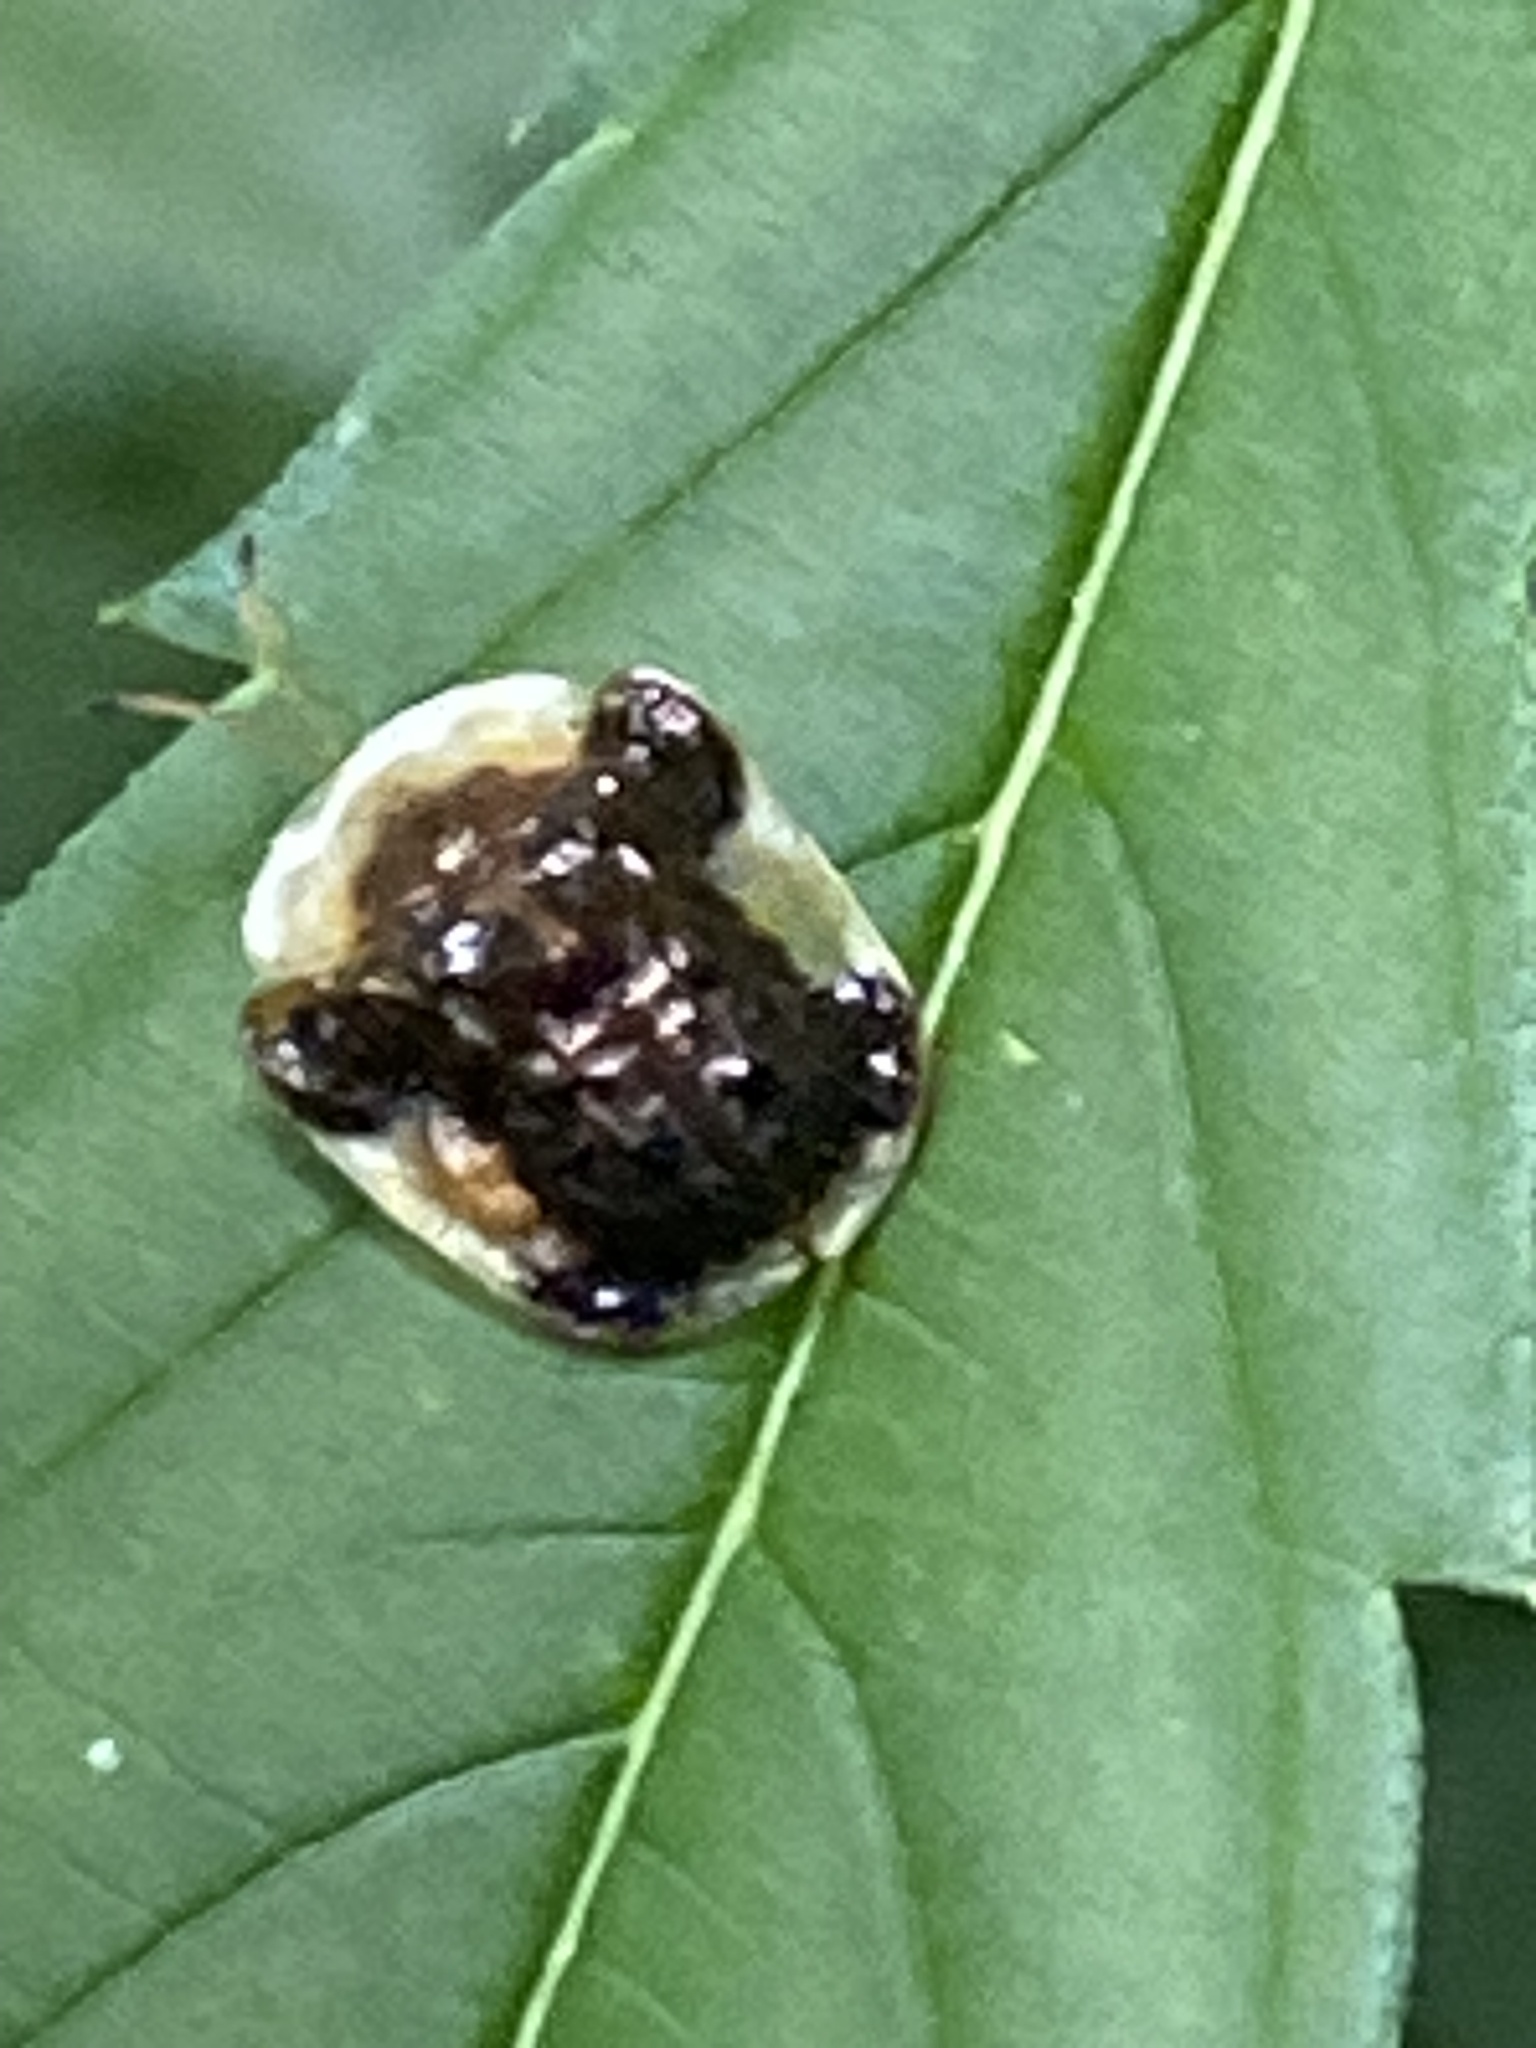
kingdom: Animalia
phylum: Arthropoda
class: Insecta
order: Coleoptera
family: Chrysomelidae
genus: Helocassis
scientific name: Helocassis clavata
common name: Clavate tortoise beetle
